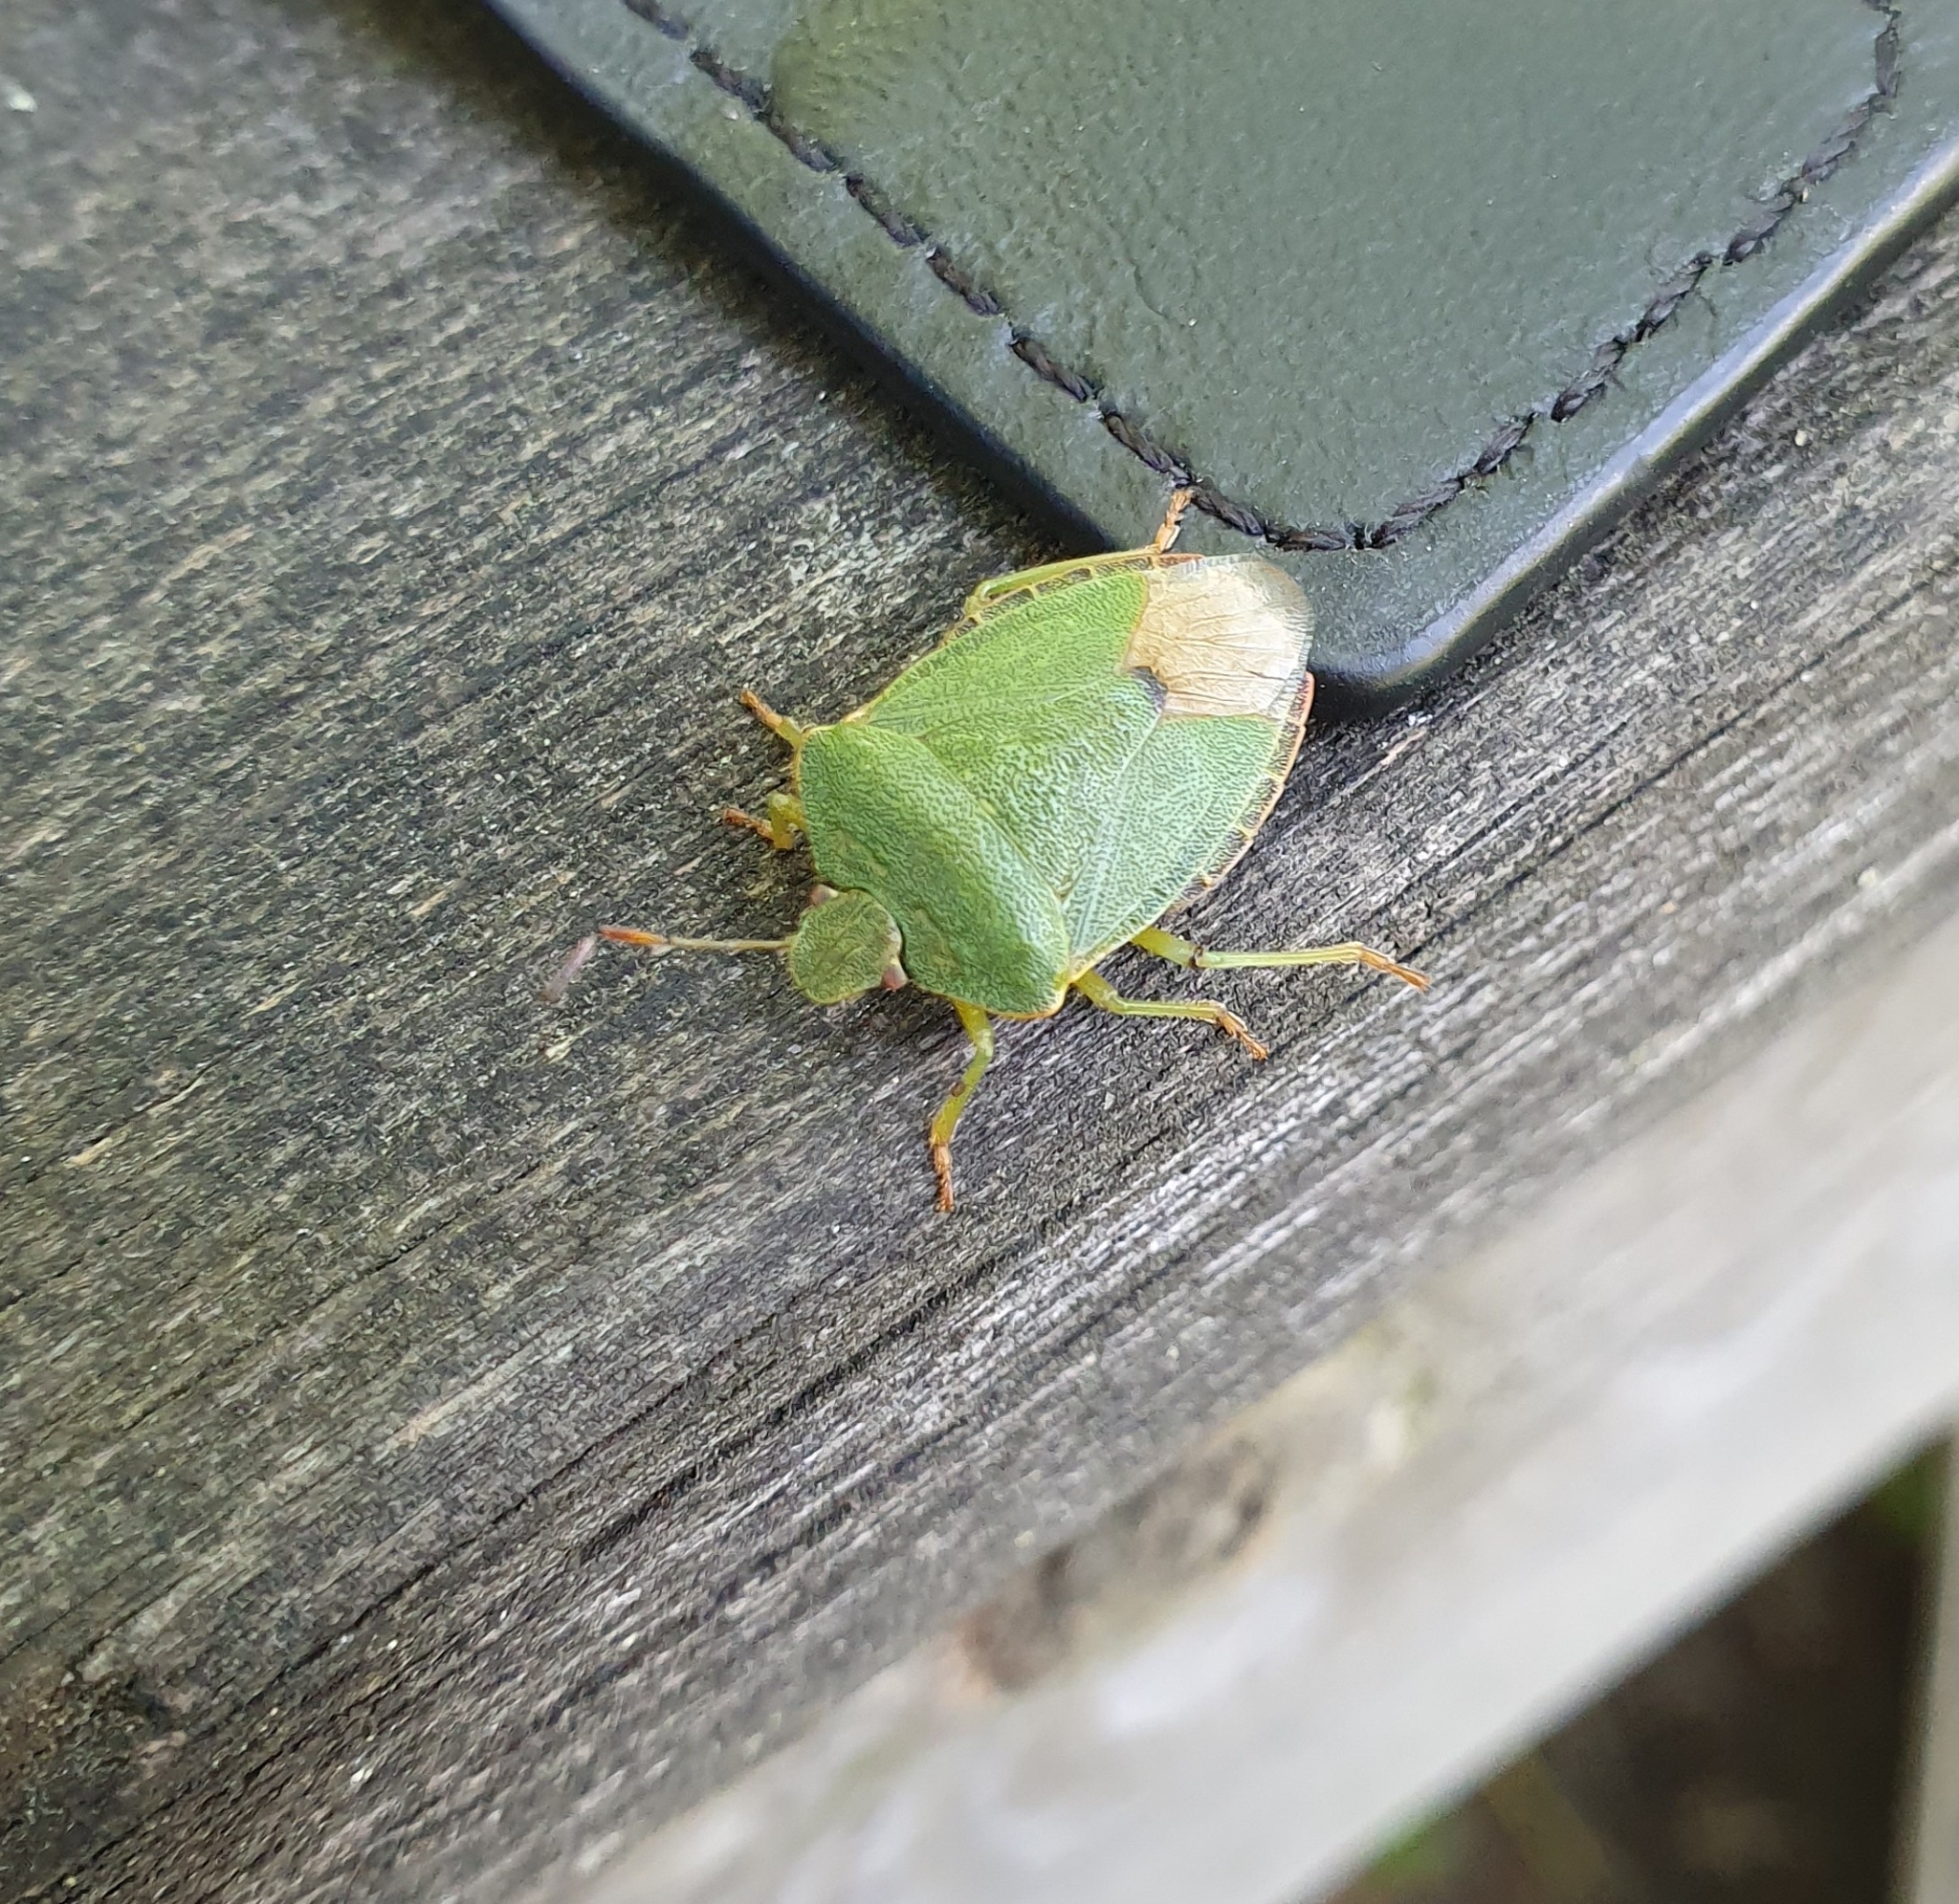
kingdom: Animalia
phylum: Arthropoda
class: Insecta
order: Hemiptera
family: Pentatomidae
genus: Palomena
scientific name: Palomena prasina
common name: Green shieldbug
